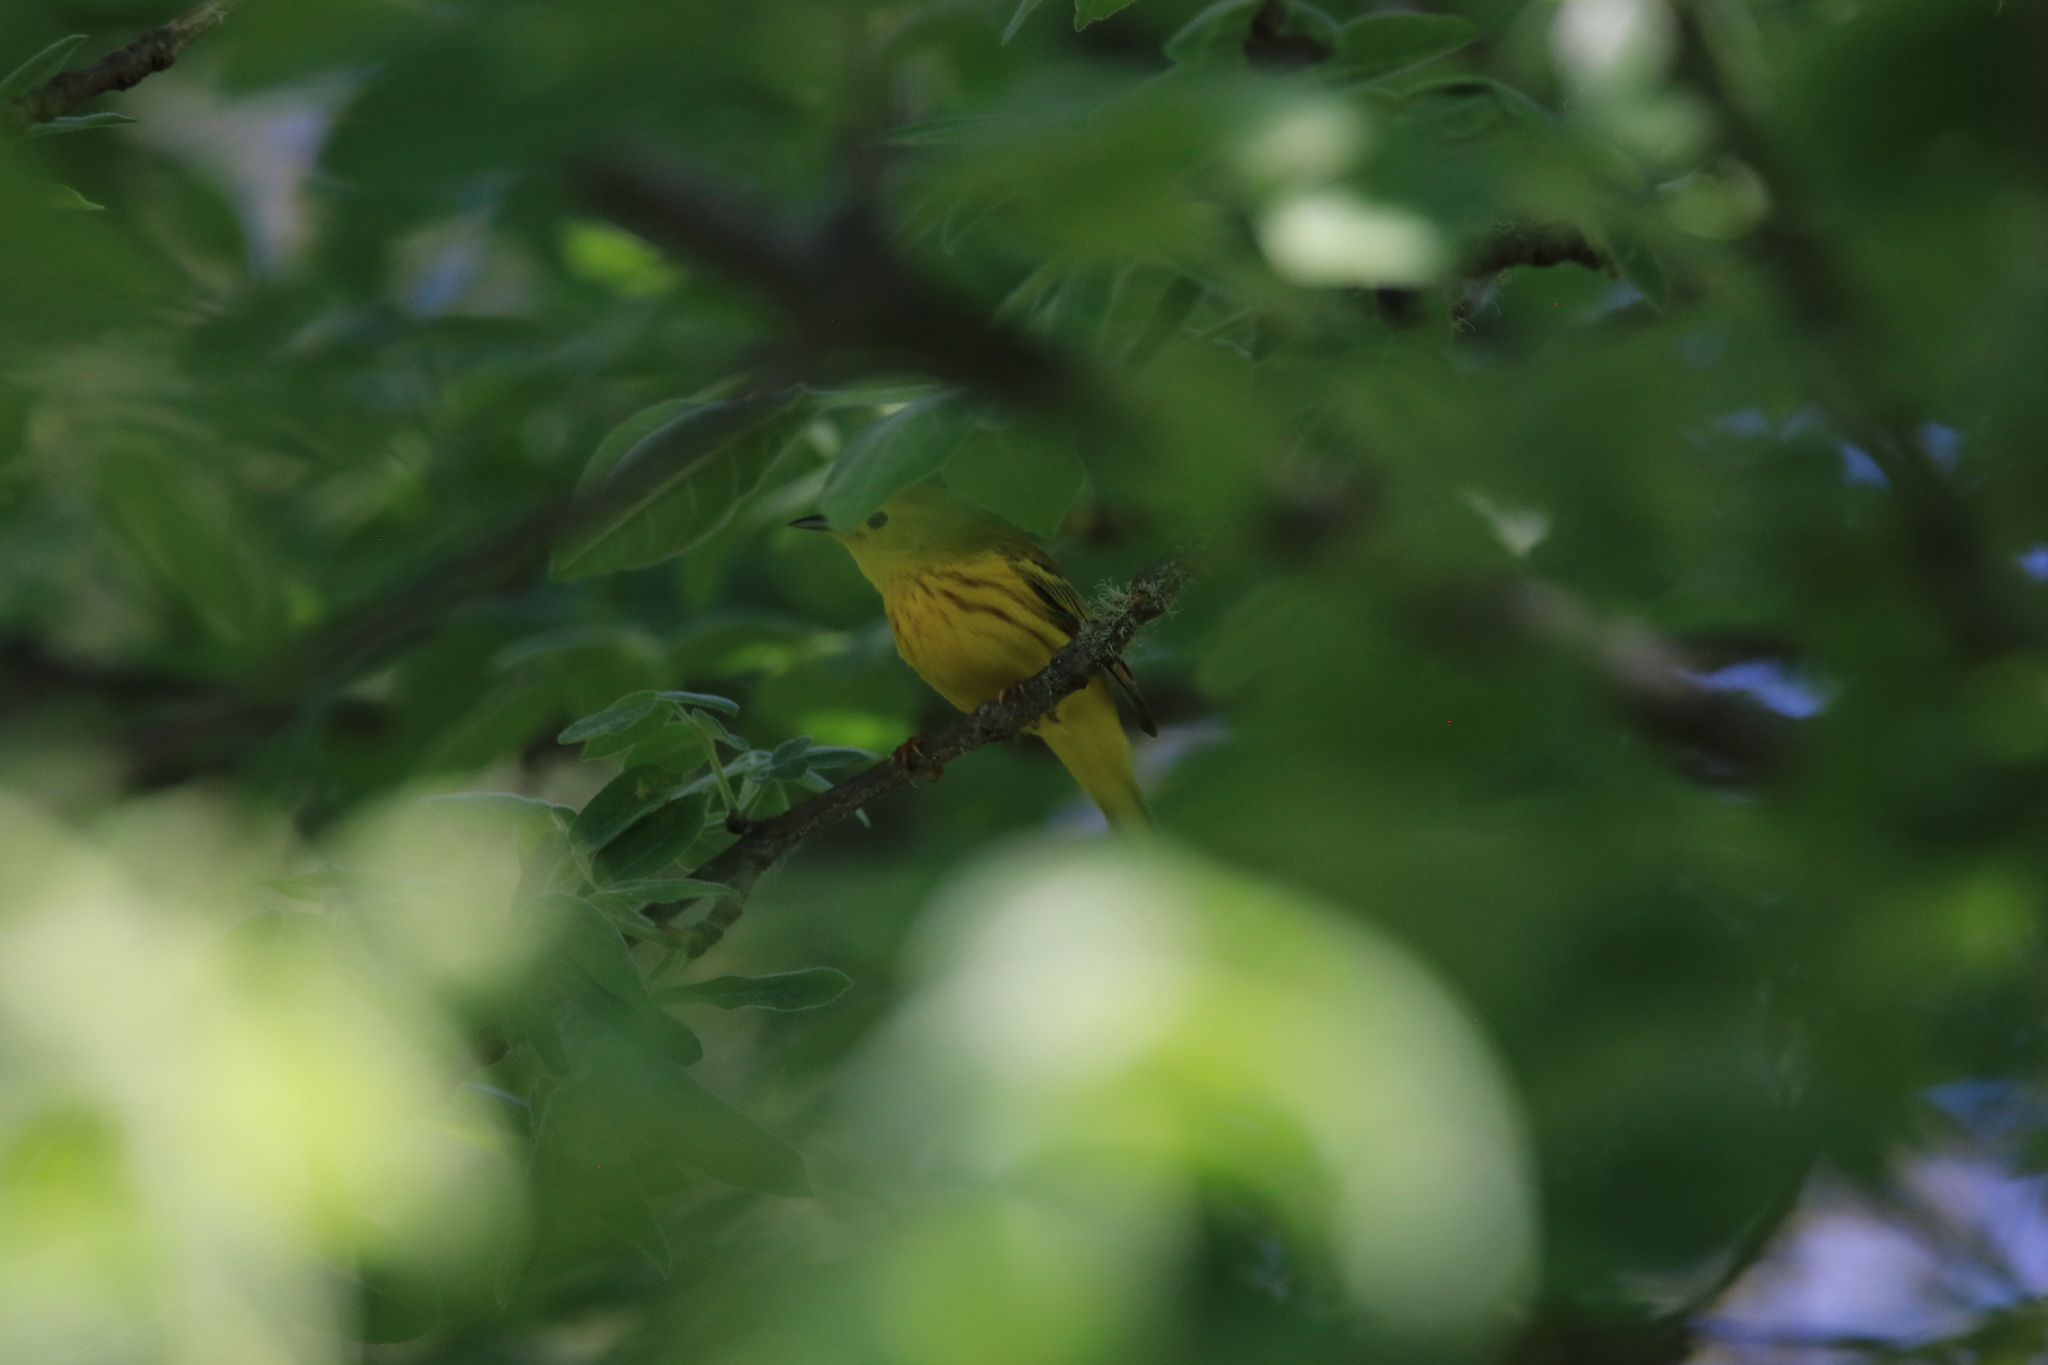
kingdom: Animalia
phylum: Chordata
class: Aves
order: Passeriformes
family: Parulidae
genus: Setophaga
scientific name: Setophaga petechia
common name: Yellow warbler
